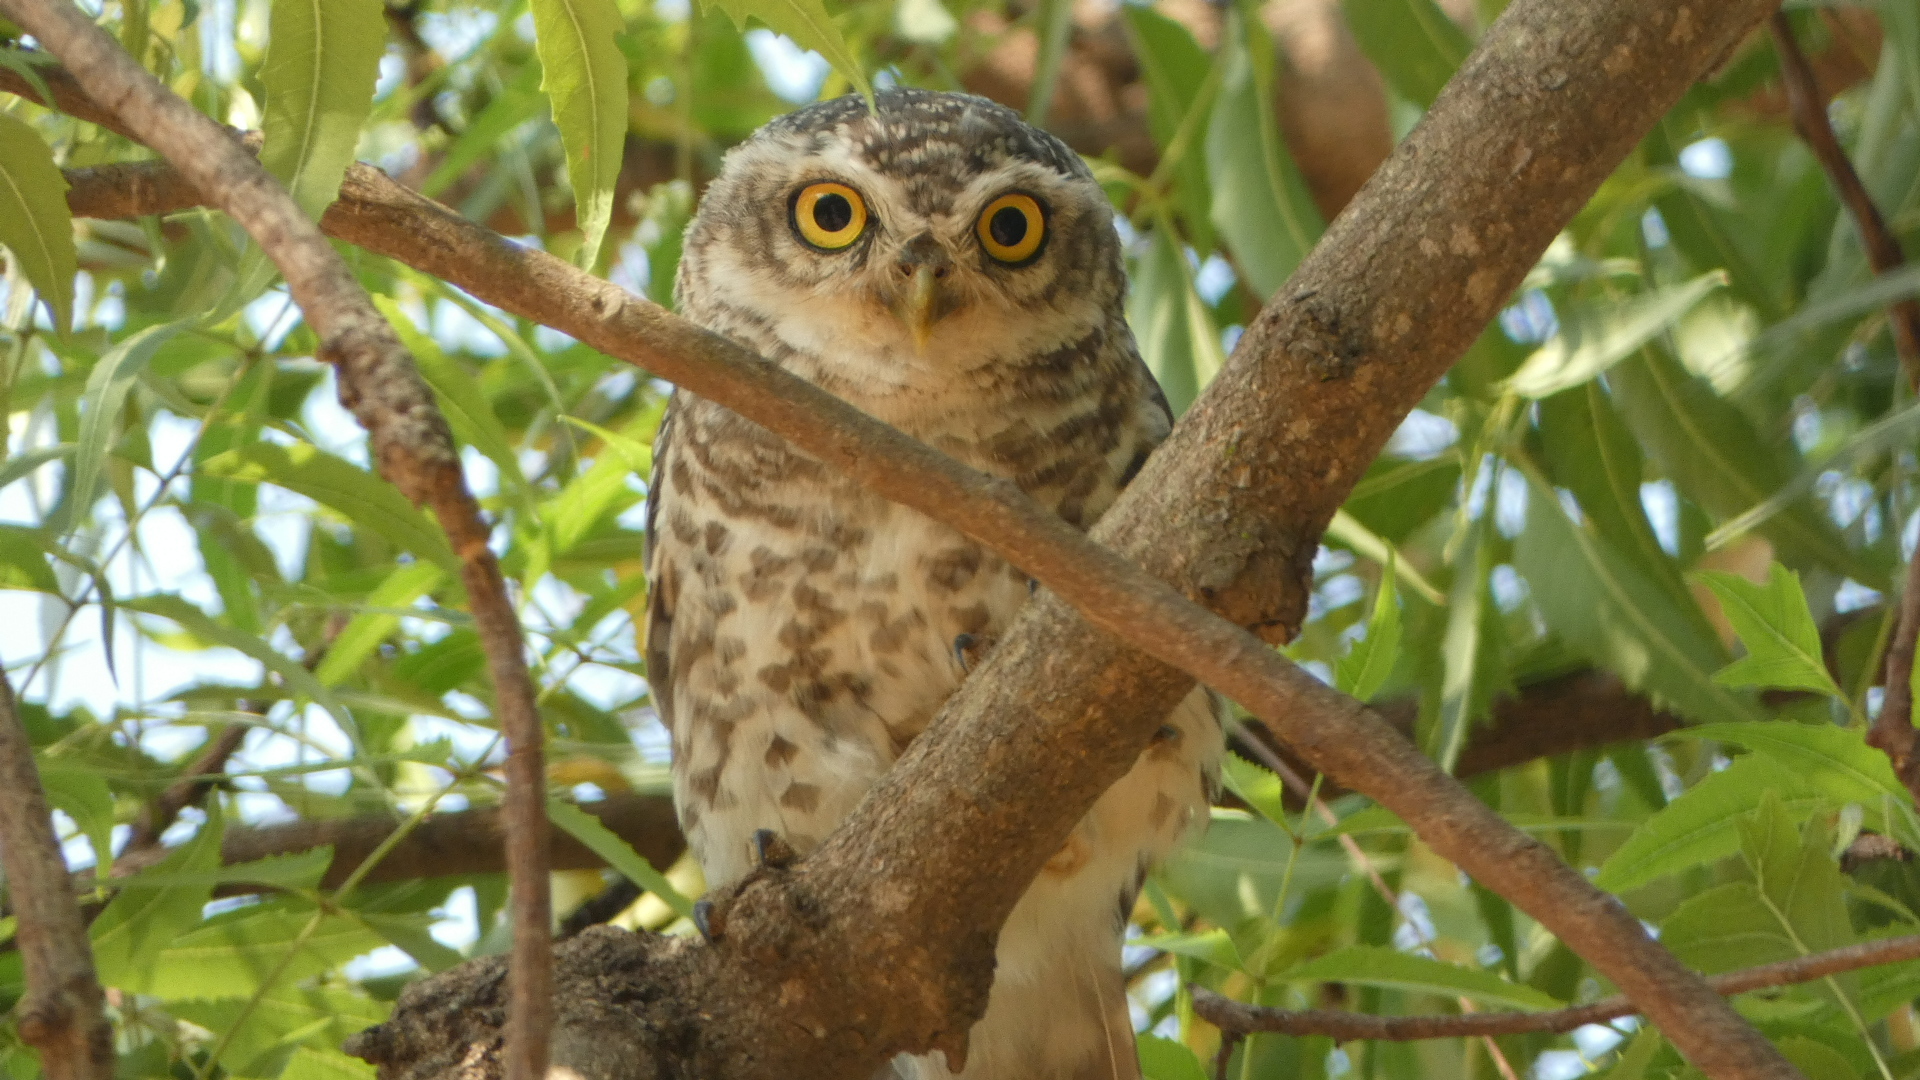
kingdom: Animalia
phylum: Chordata
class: Aves
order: Strigiformes
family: Strigidae
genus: Athene
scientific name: Athene brama
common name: Spotted owlet
